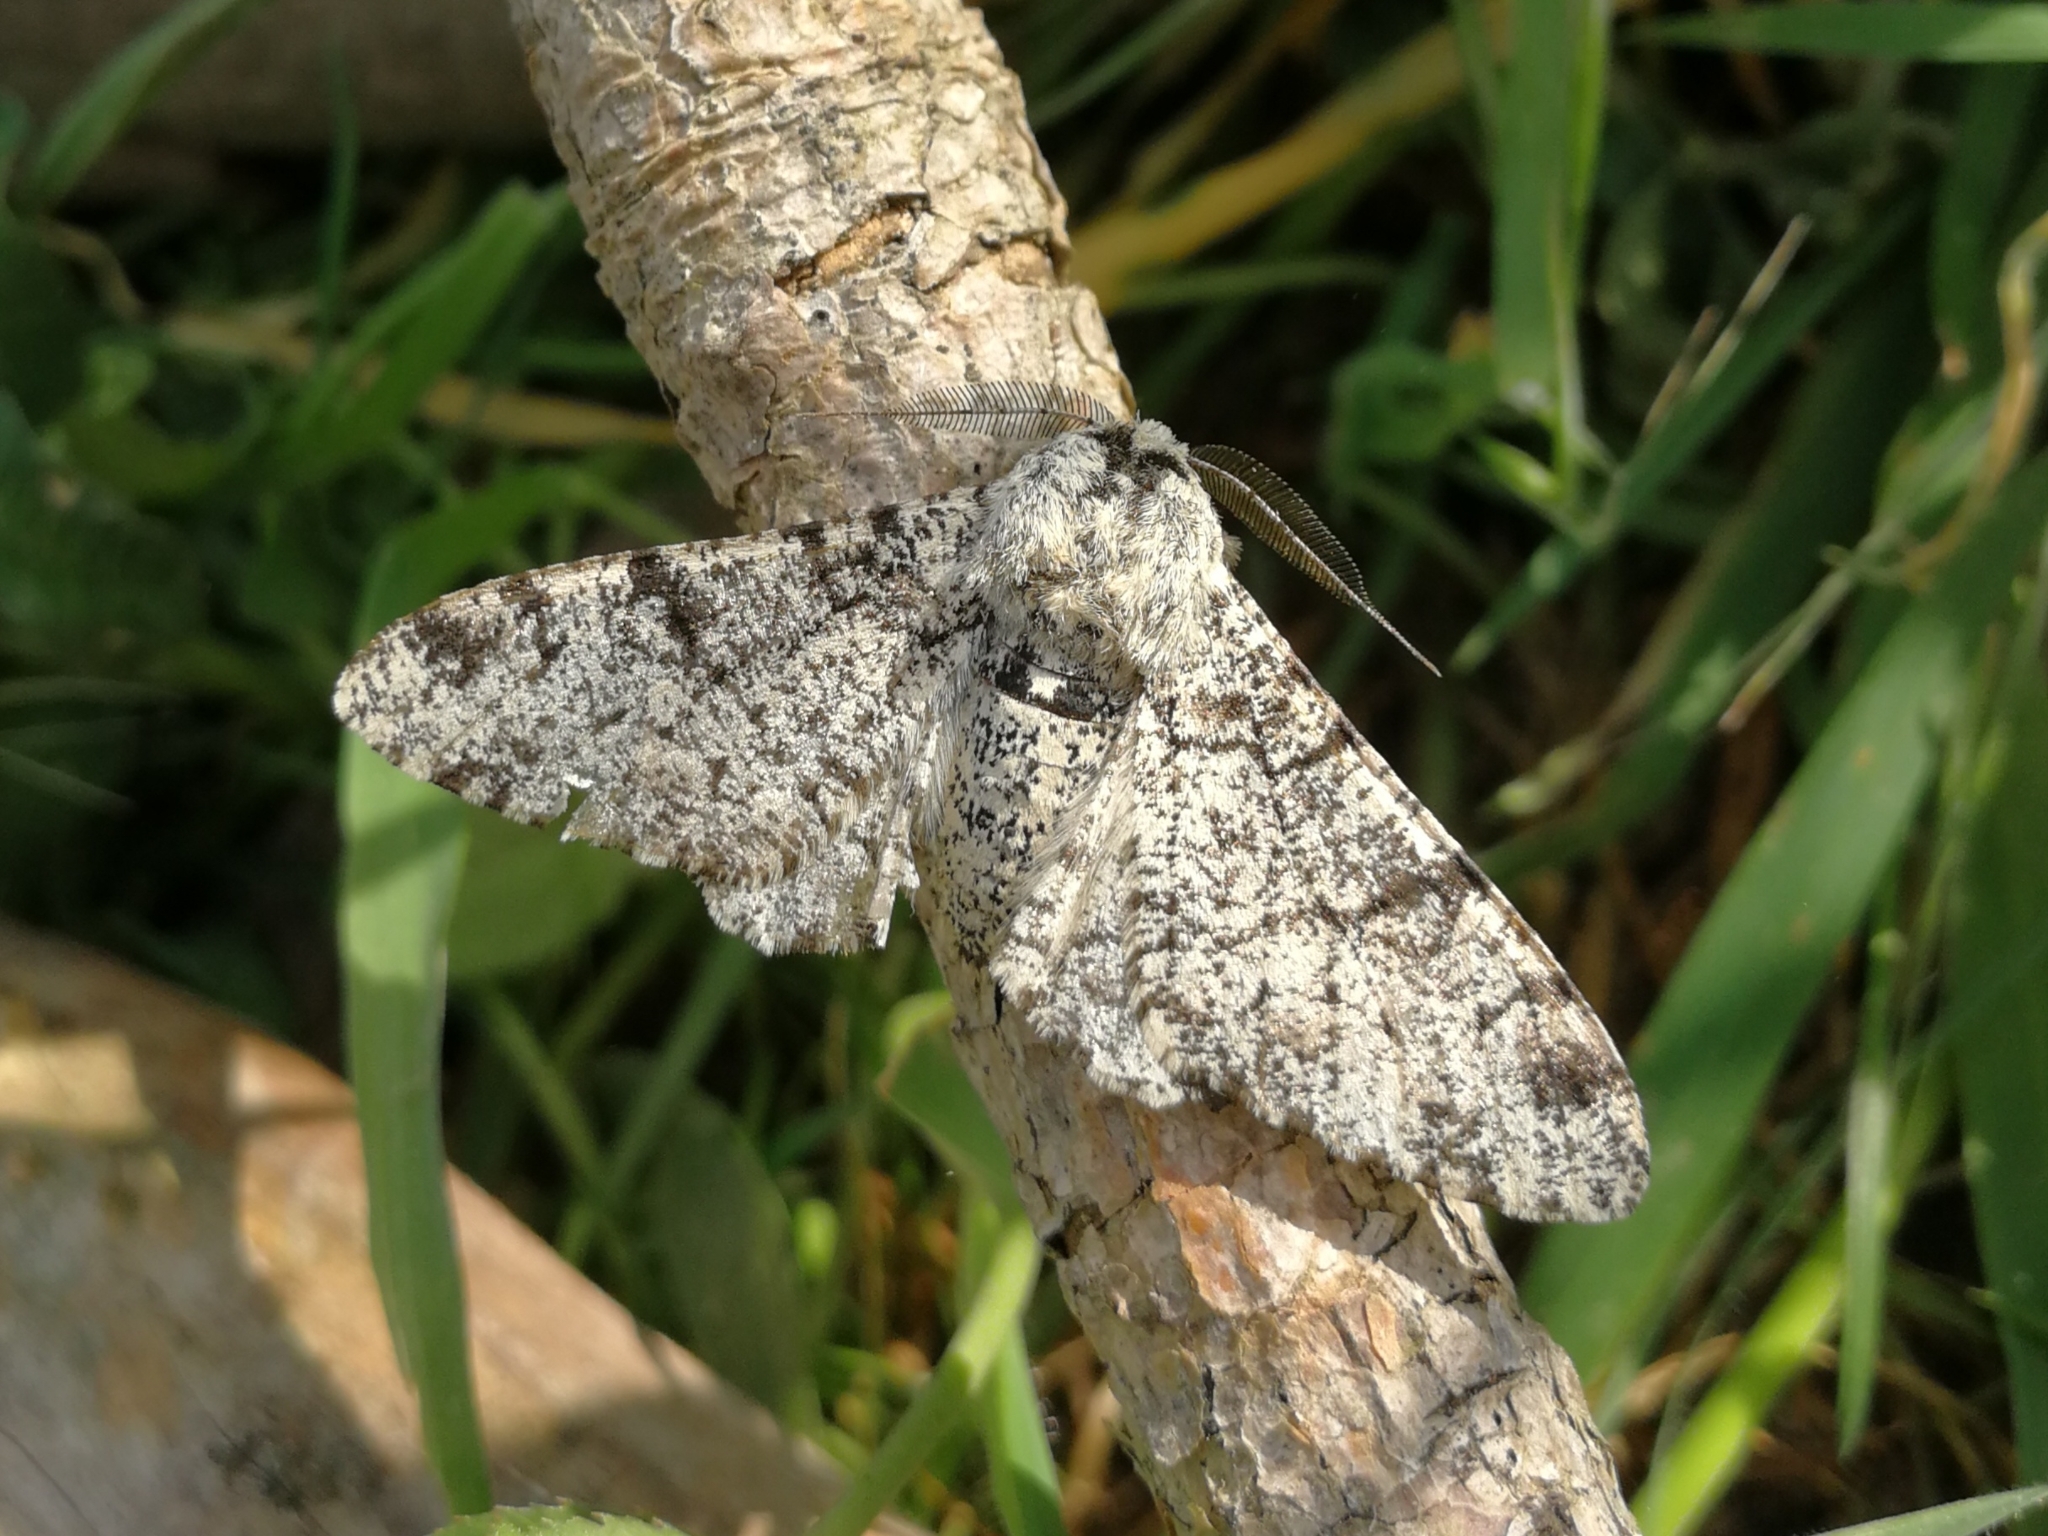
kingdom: Animalia
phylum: Arthropoda
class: Insecta
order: Lepidoptera
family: Geometridae
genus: Biston
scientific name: Biston betularia
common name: Peppered moth
